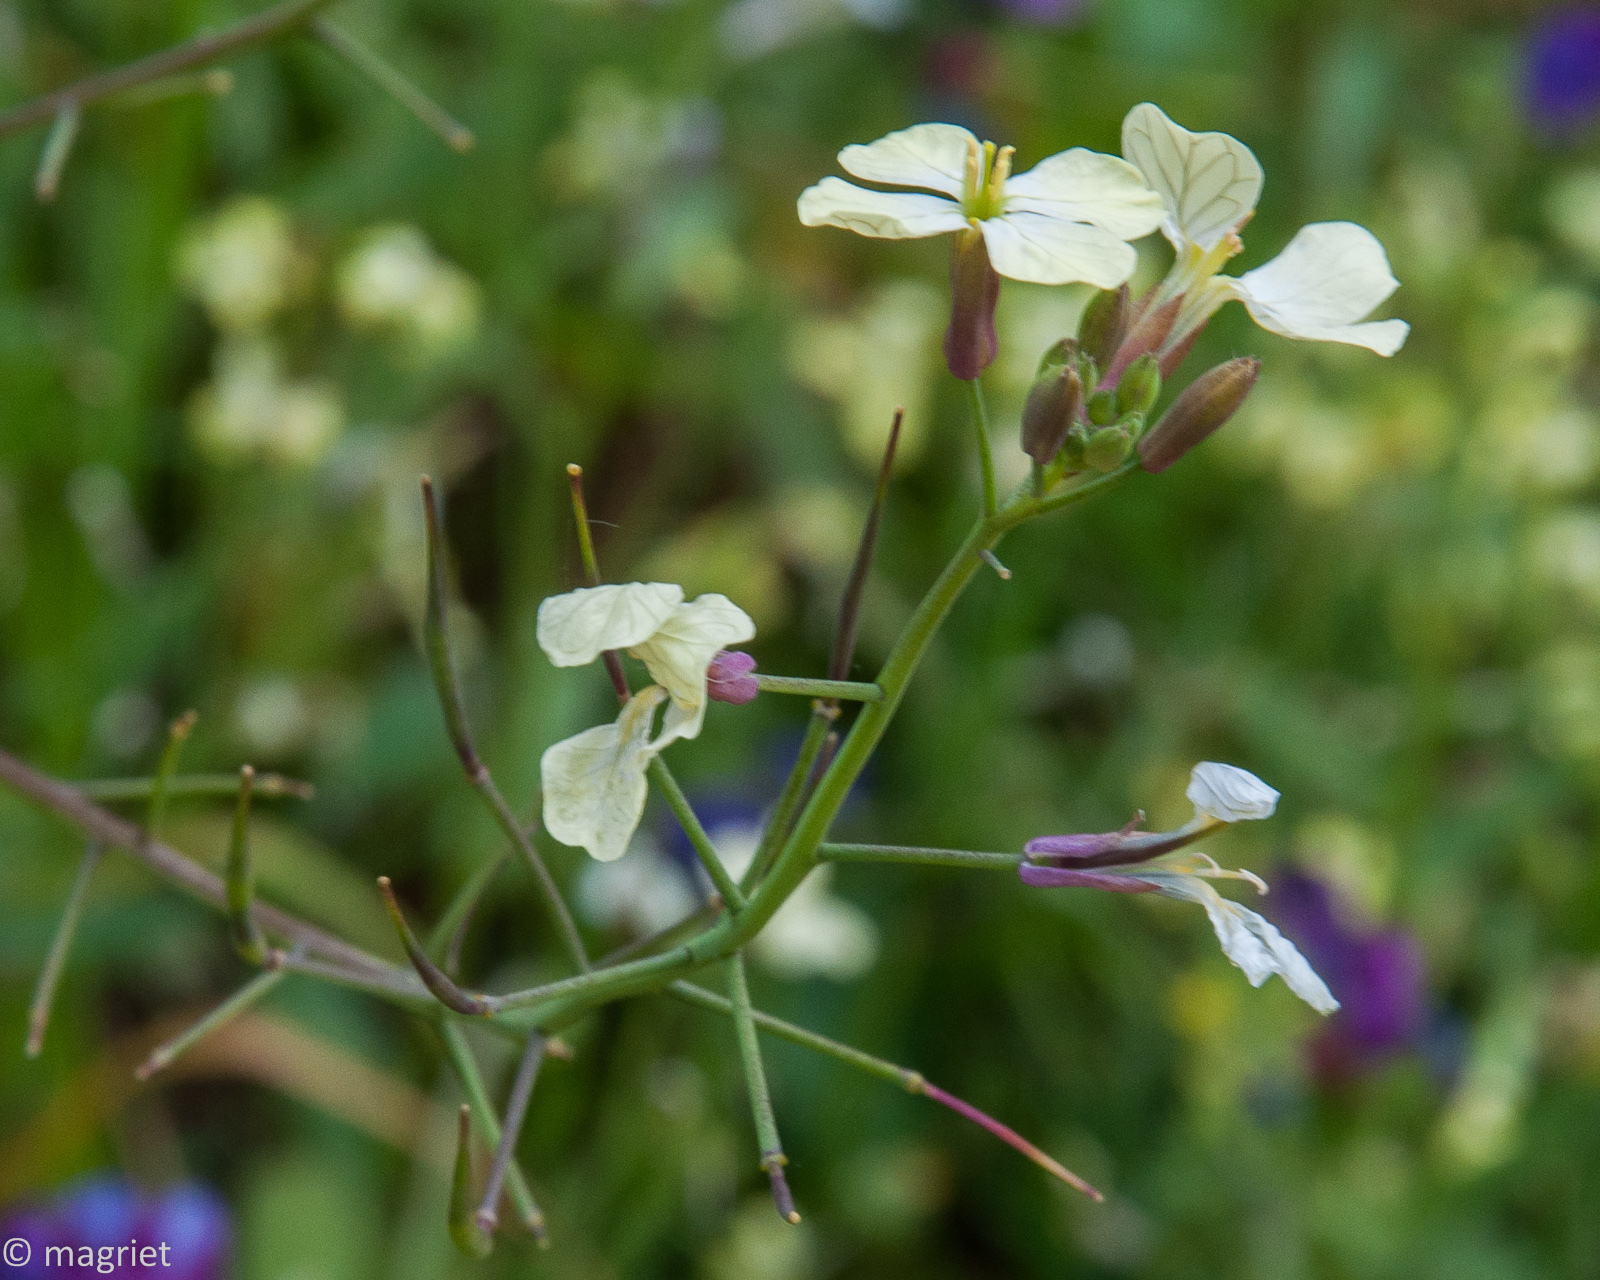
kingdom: Plantae
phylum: Tracheophyta
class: Magnoliopsida
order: Brassicales
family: Brassicaceae
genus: Raphanus
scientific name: Raphanus raphanistrum
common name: Wild radish
